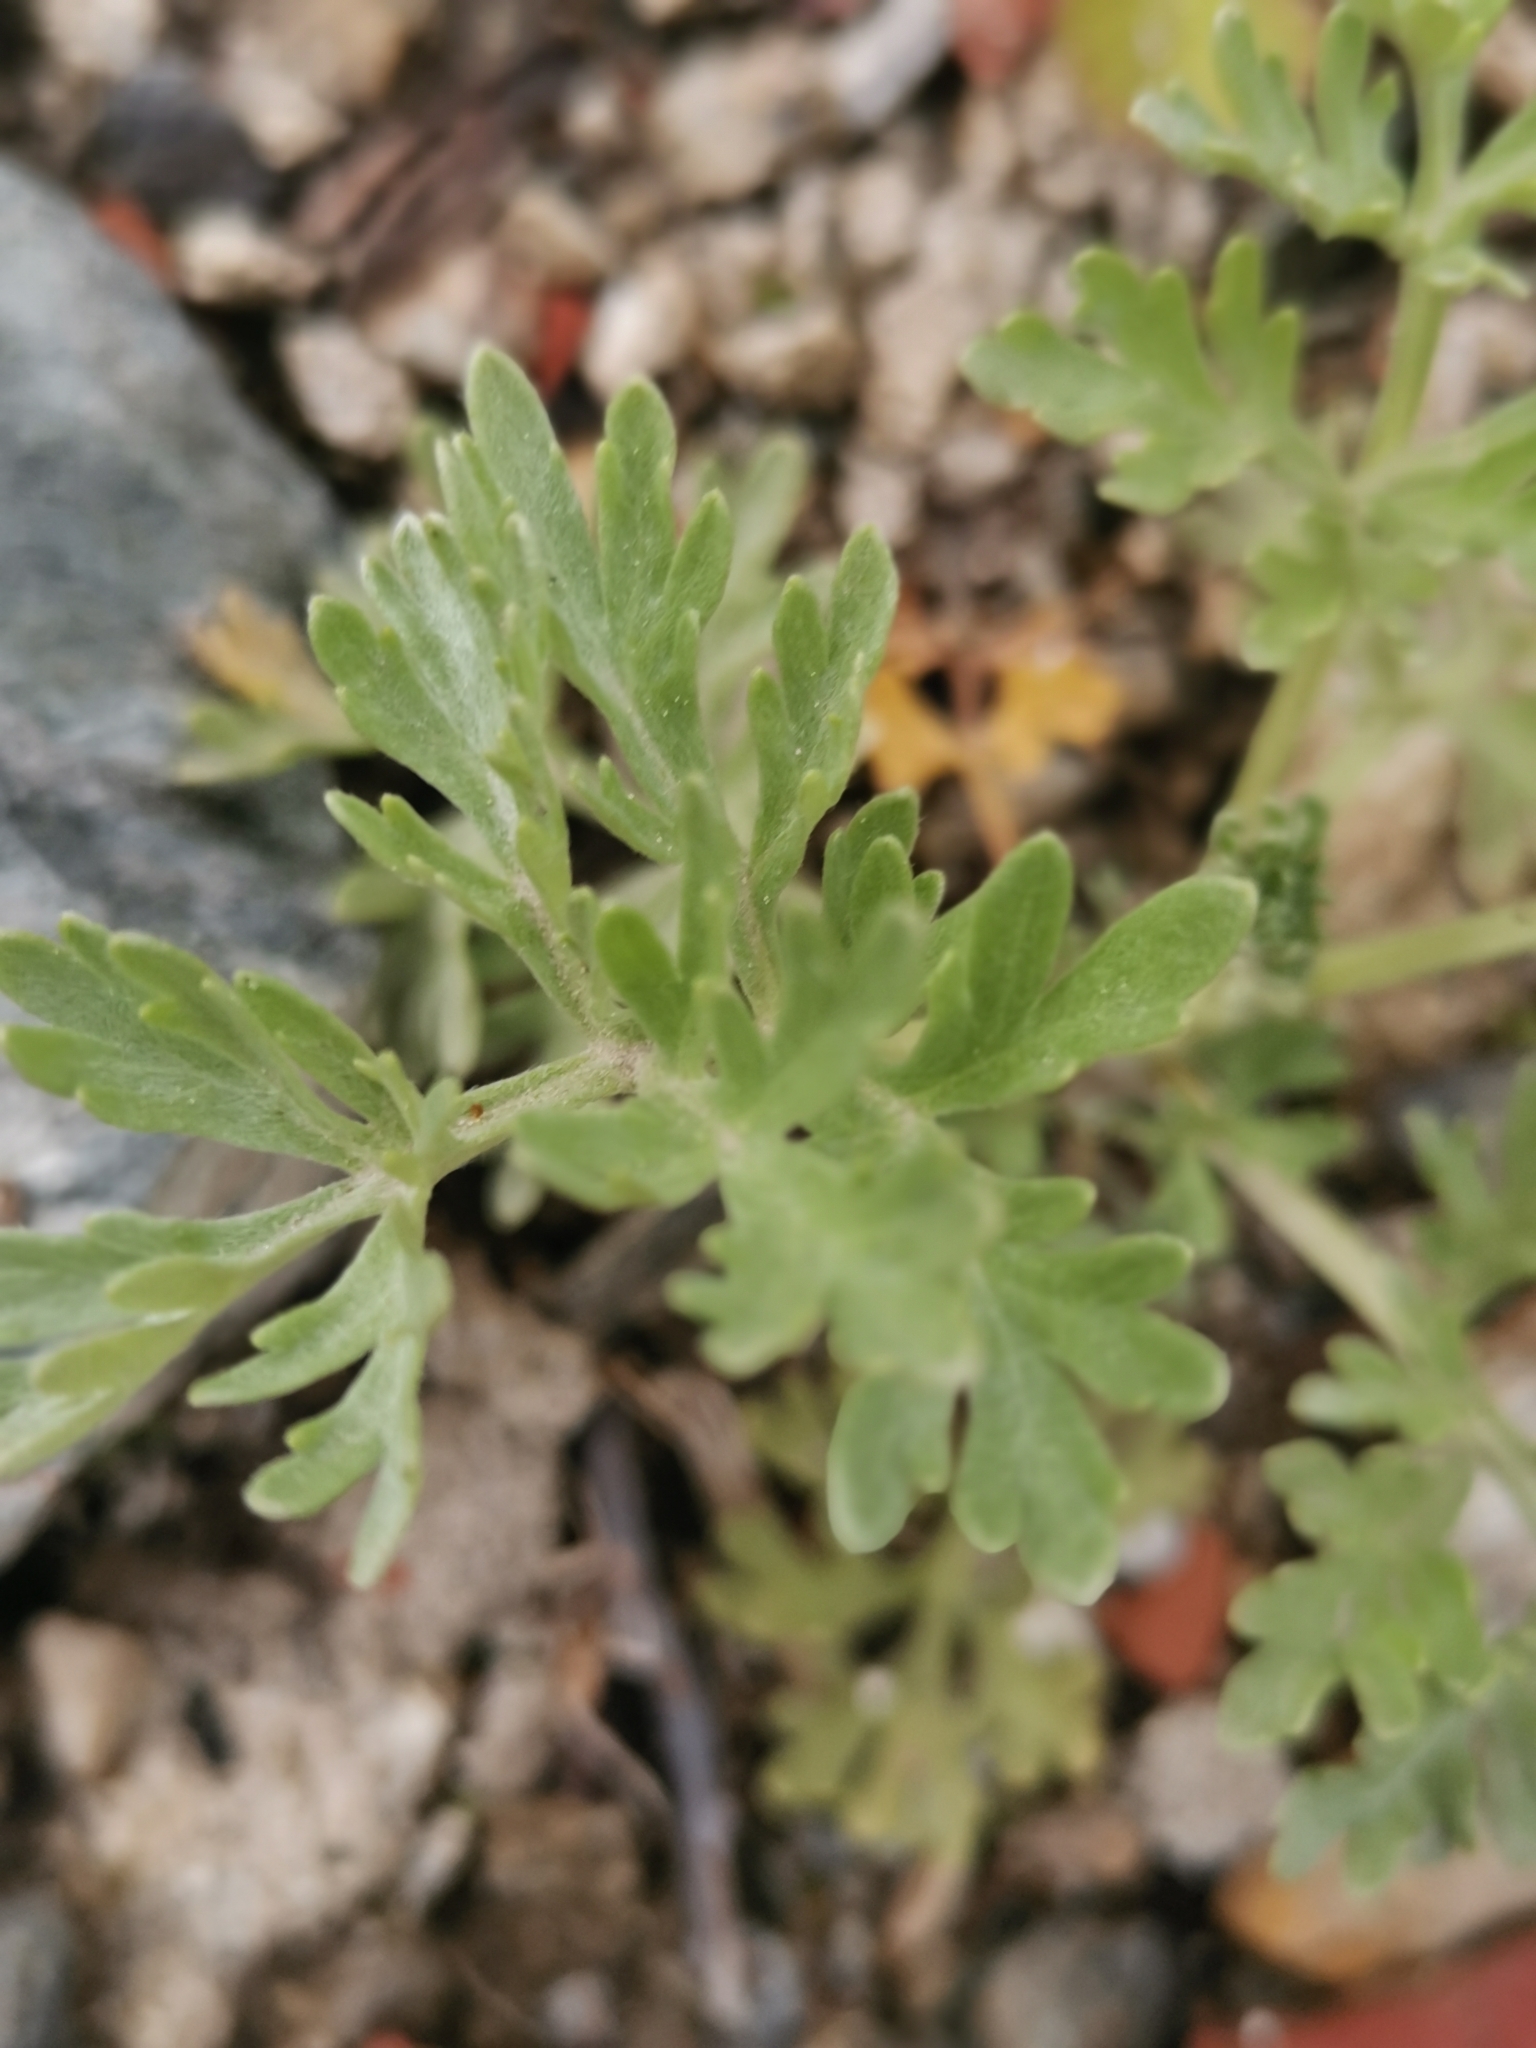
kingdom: Plantae
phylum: Tracheophyta
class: Magnoliopsida
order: Asterales
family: Asteraceae
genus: Artemisia
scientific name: Artemisia absinthium
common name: Wormwood
